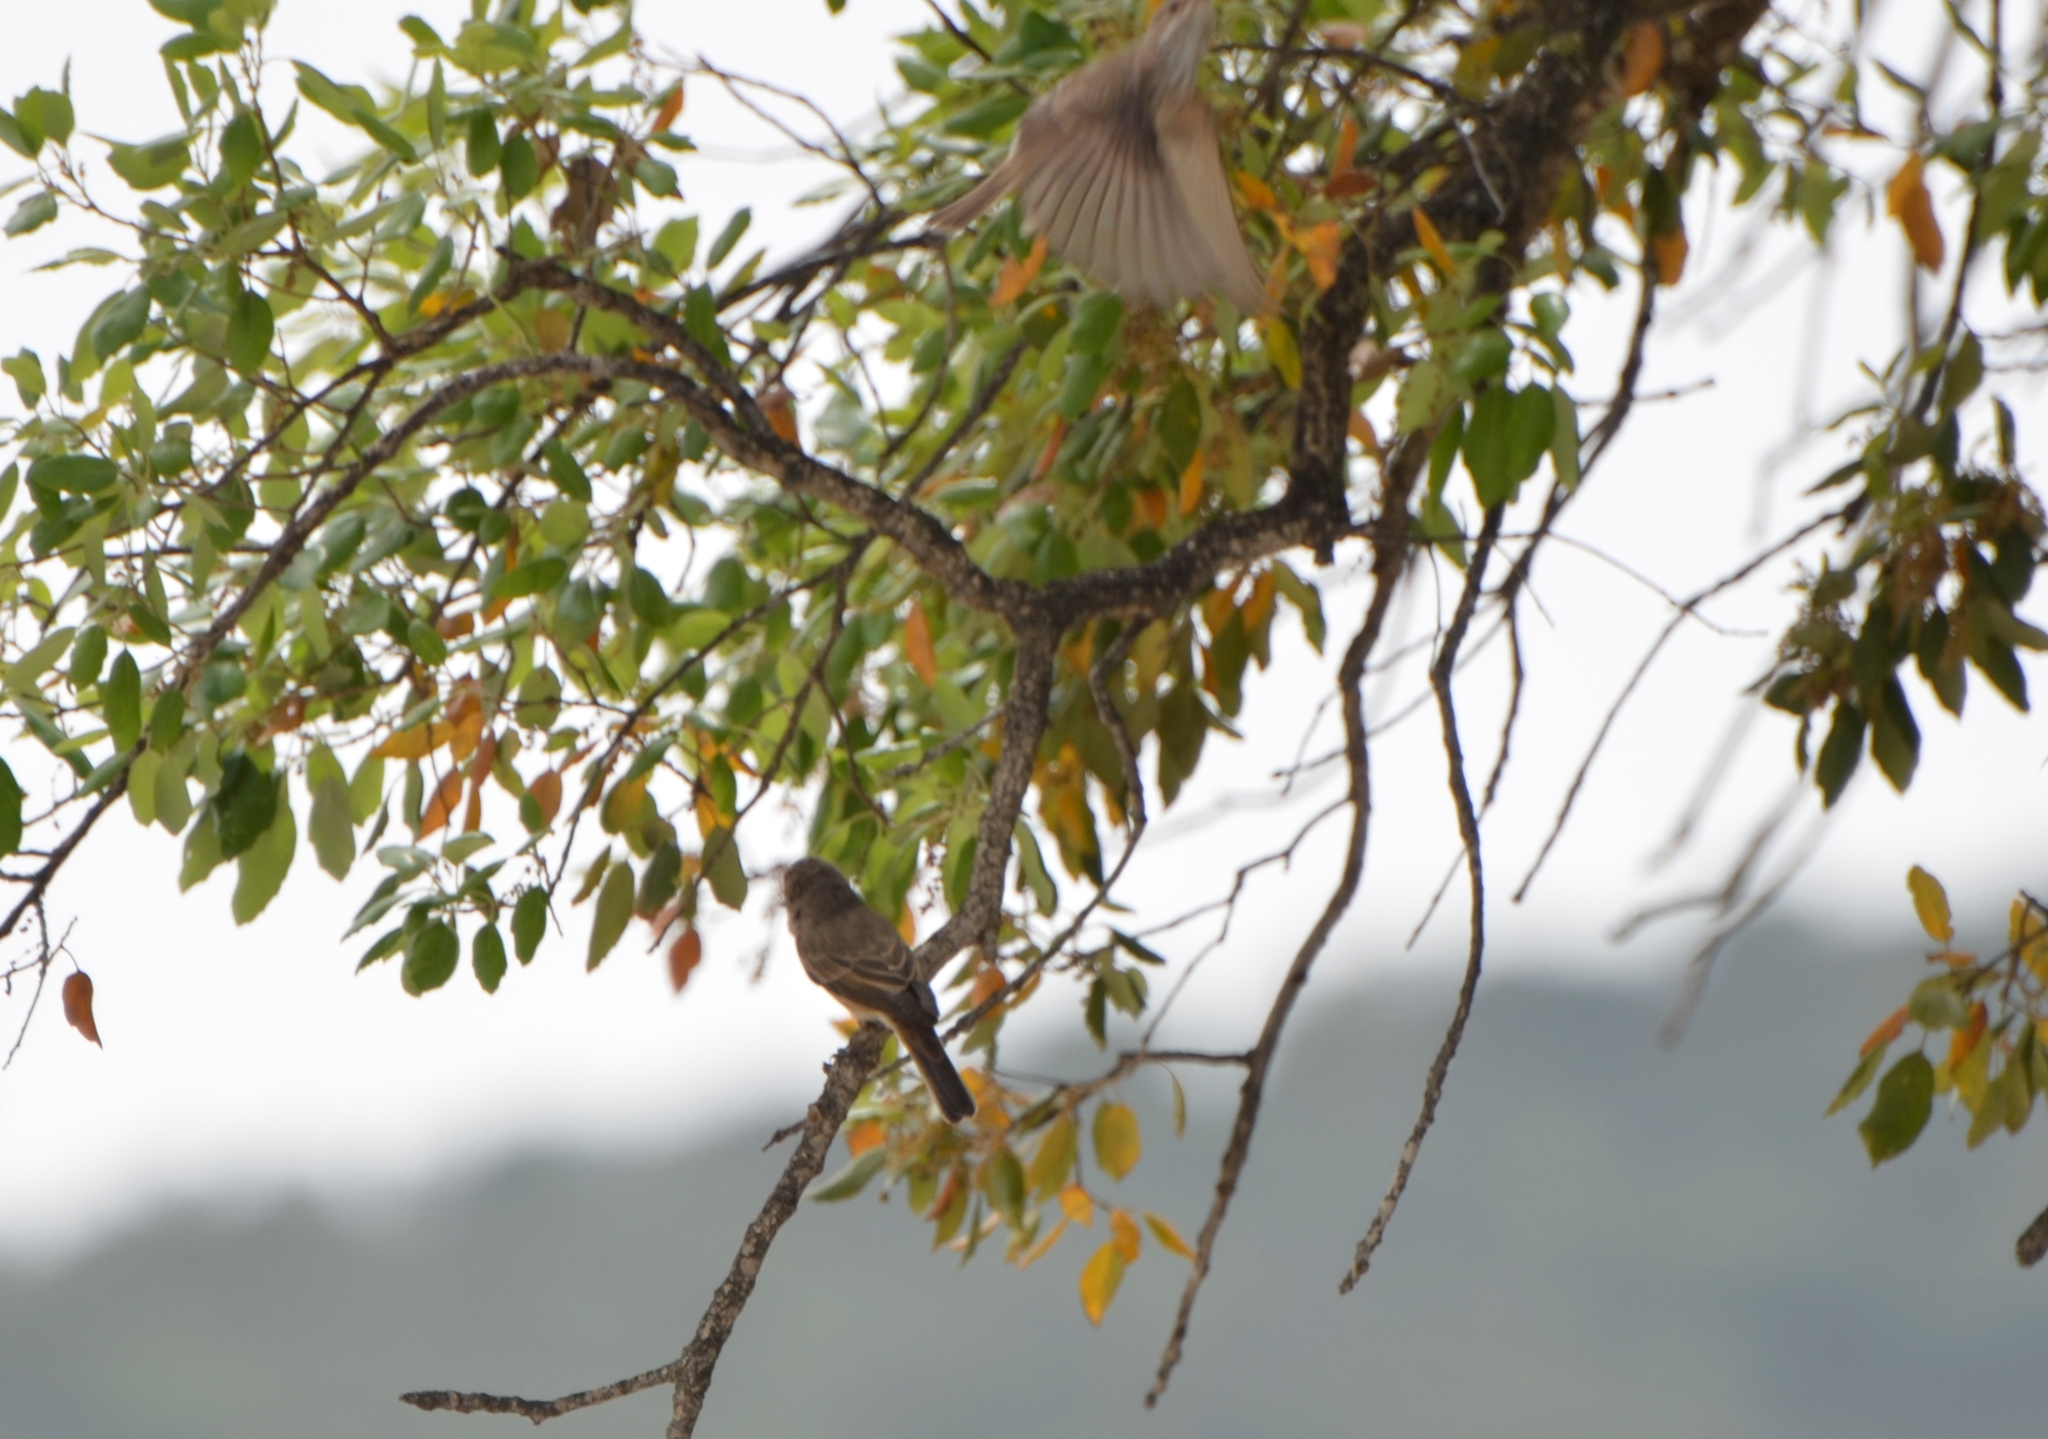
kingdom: Animalia
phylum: Chordata
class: Aves
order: Passeriformes
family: Muscicapidae
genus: Muscicapa
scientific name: Muscicapa striata
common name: Spotted flycatcher
